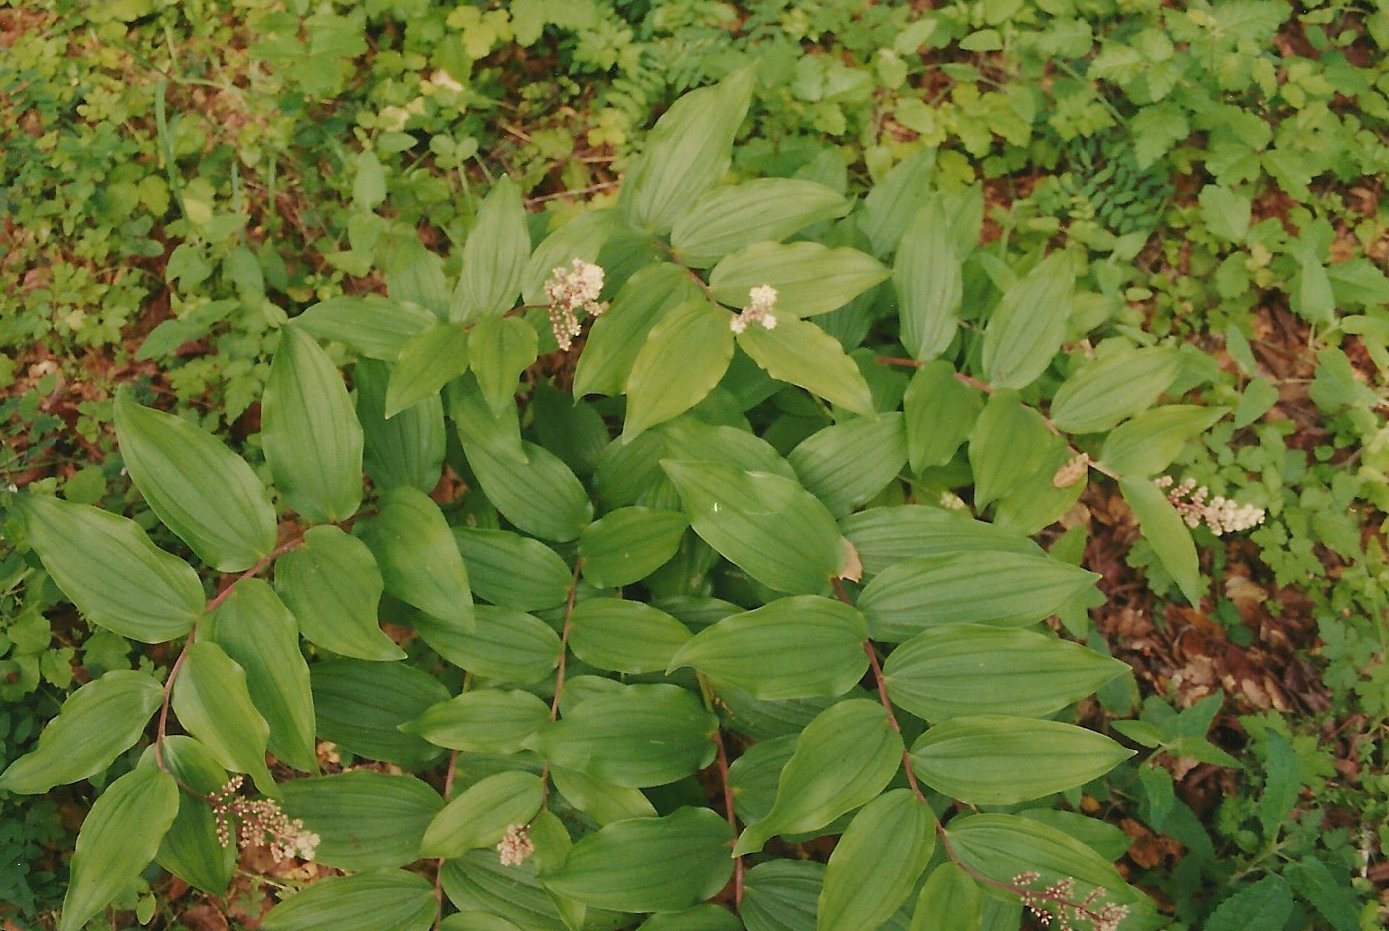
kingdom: Plantae
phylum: Tracheophyta
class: Liliopsida
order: Asparagales
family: Asparagaceae
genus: Maianthemum
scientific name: Maianthemum racemosum
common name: False spikenard
